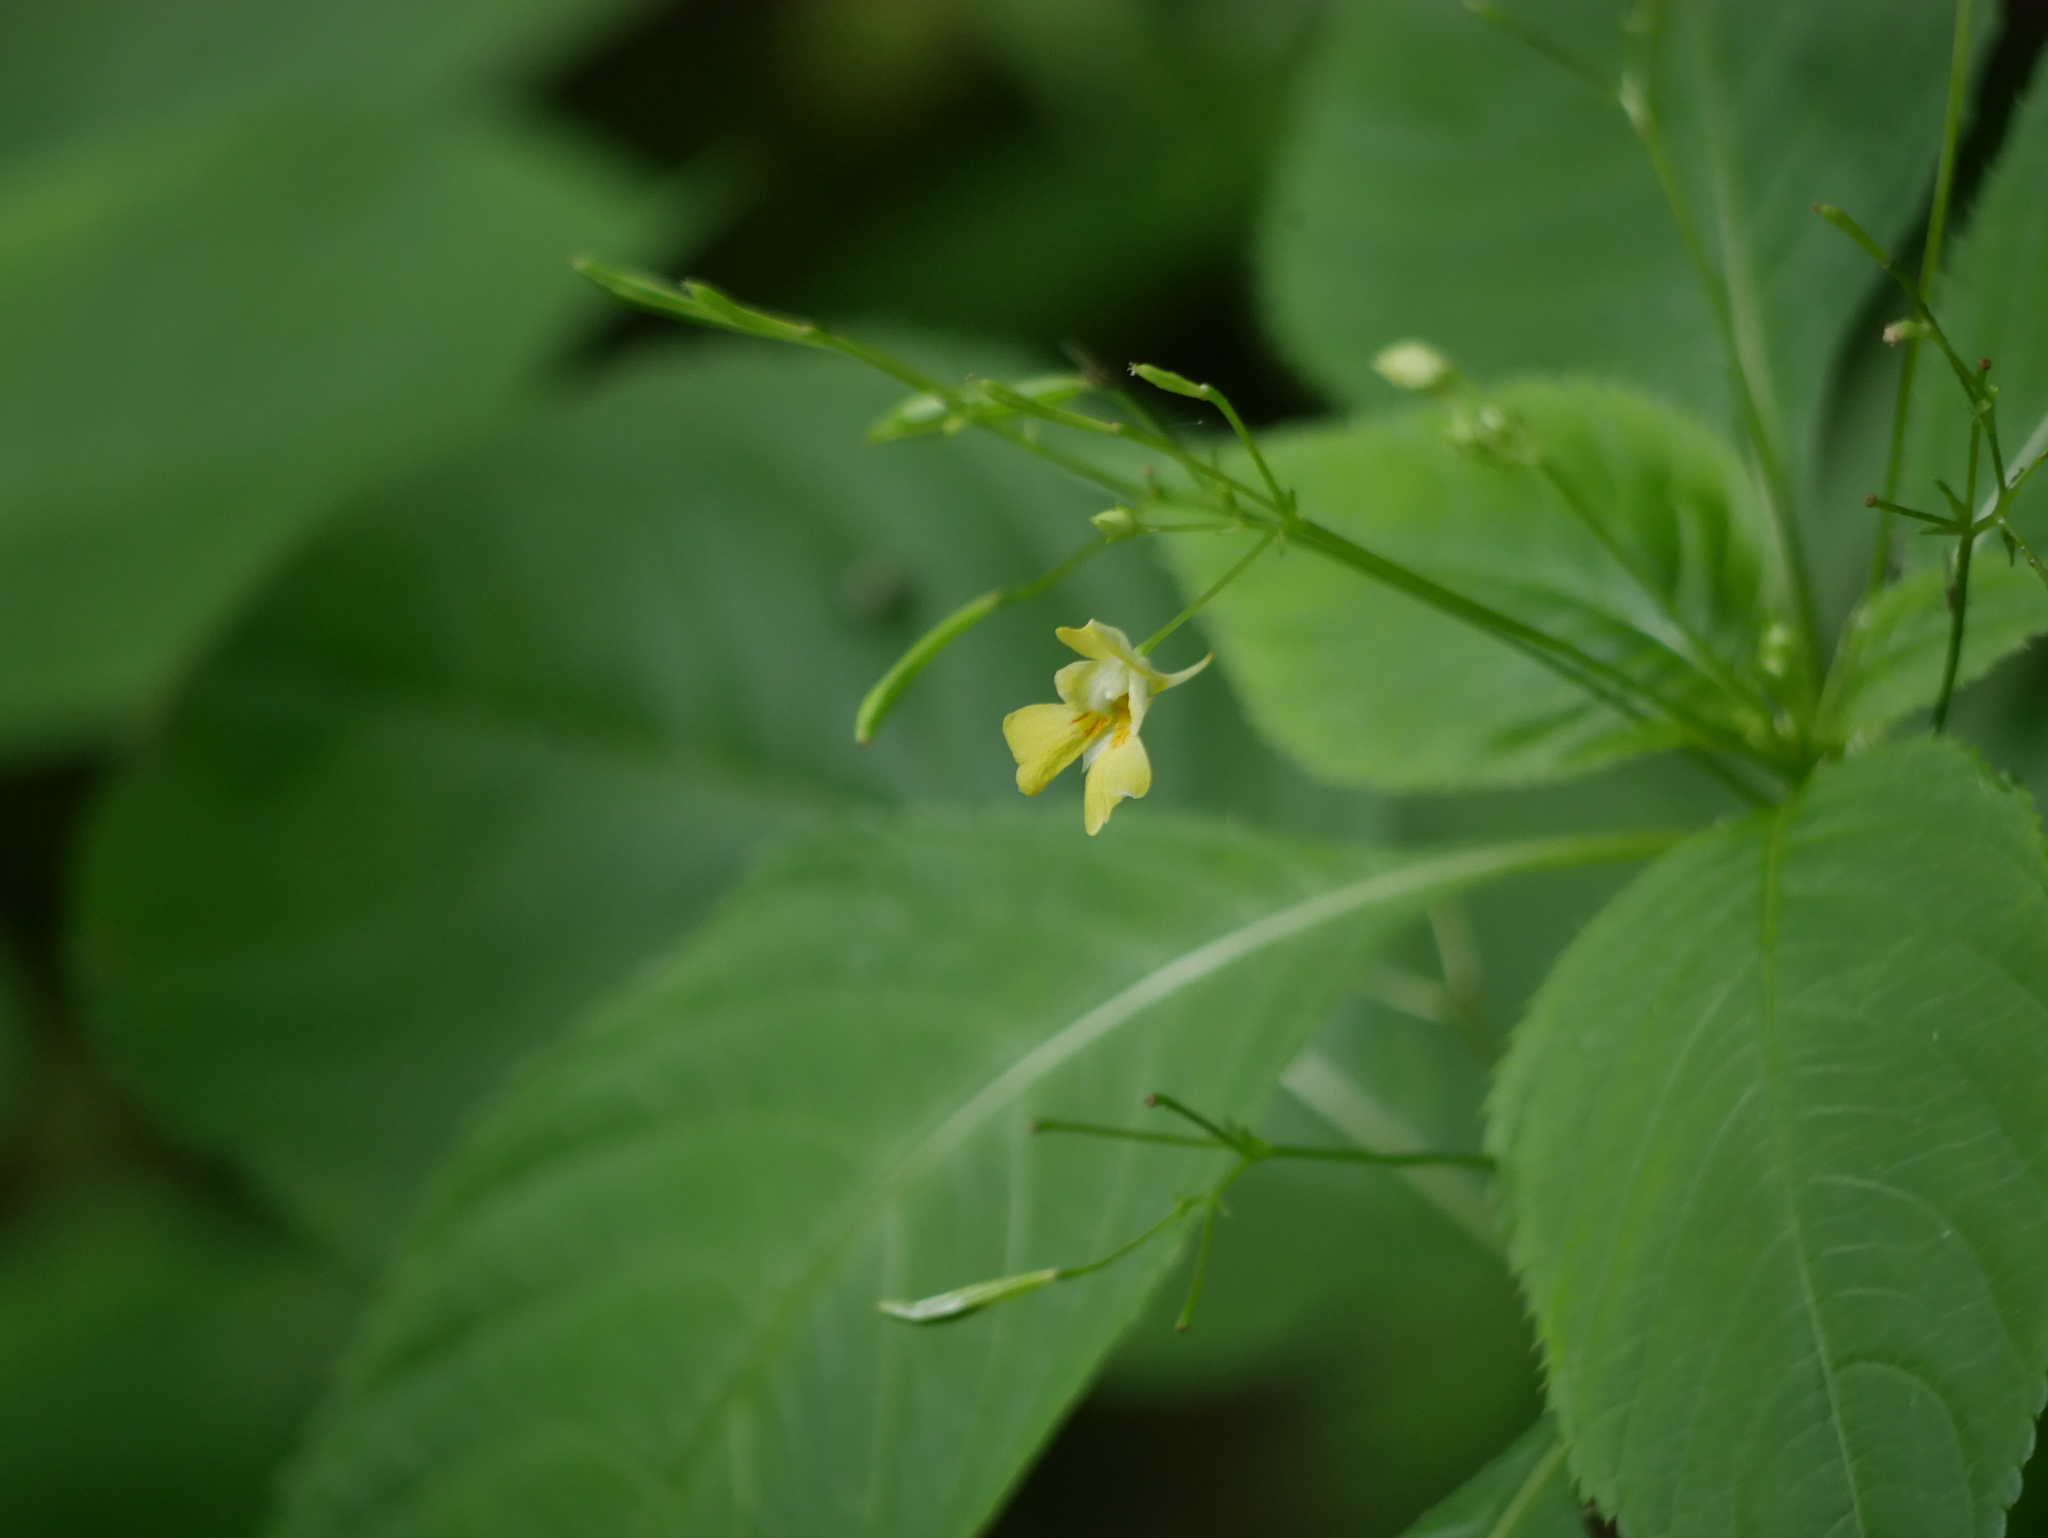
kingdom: Plantae
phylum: Tracheophyta
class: Magnoliopsida
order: Ericales
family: Balsaminaceae
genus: Impatiens
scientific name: Impatiens parviflora
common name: Small balsam
